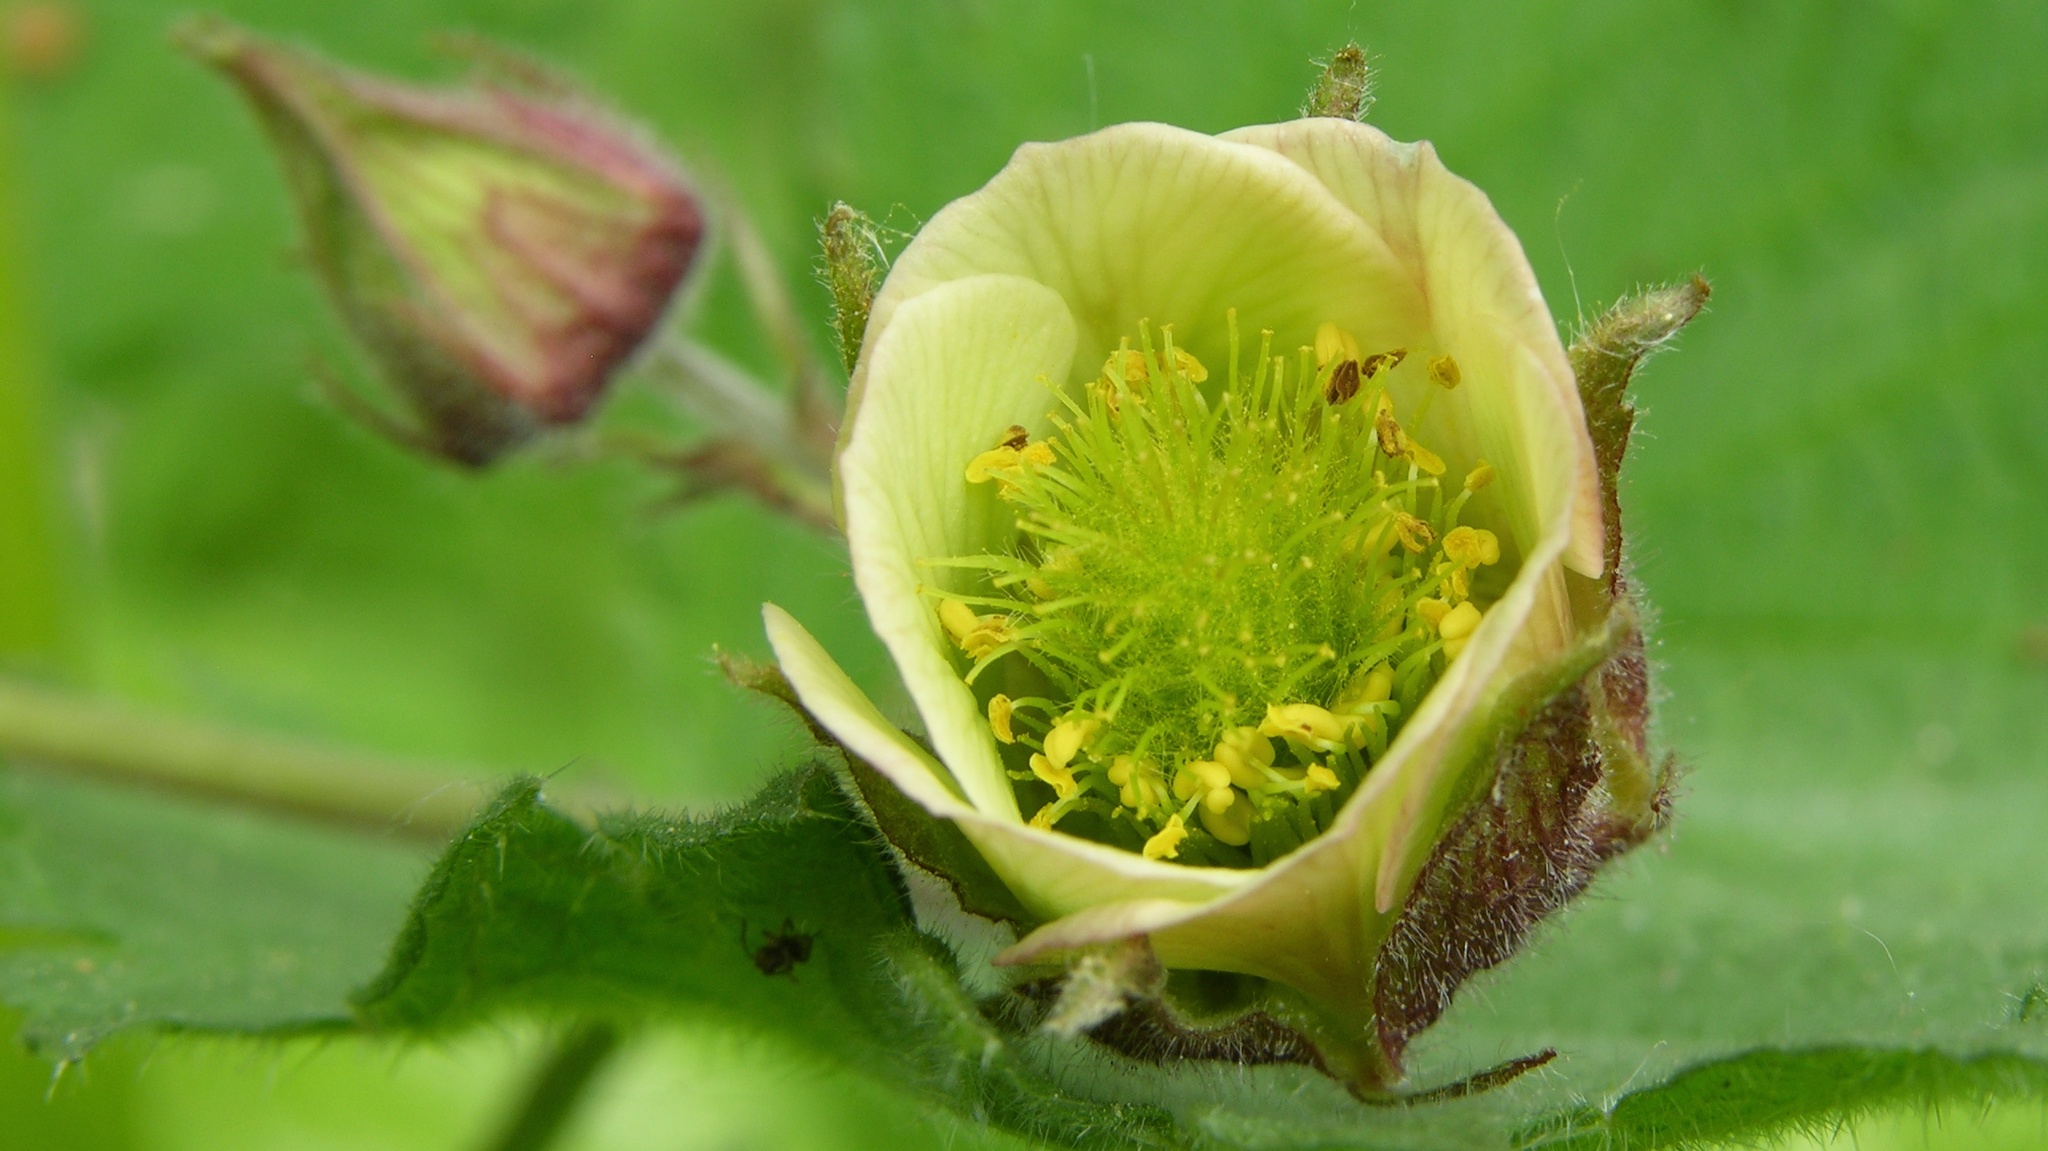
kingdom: Plantae
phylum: Tracheophyta
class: Magnoliopsida
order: Rosales
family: Rosaceae
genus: Geum
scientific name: Geum rivale
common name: Water avens
